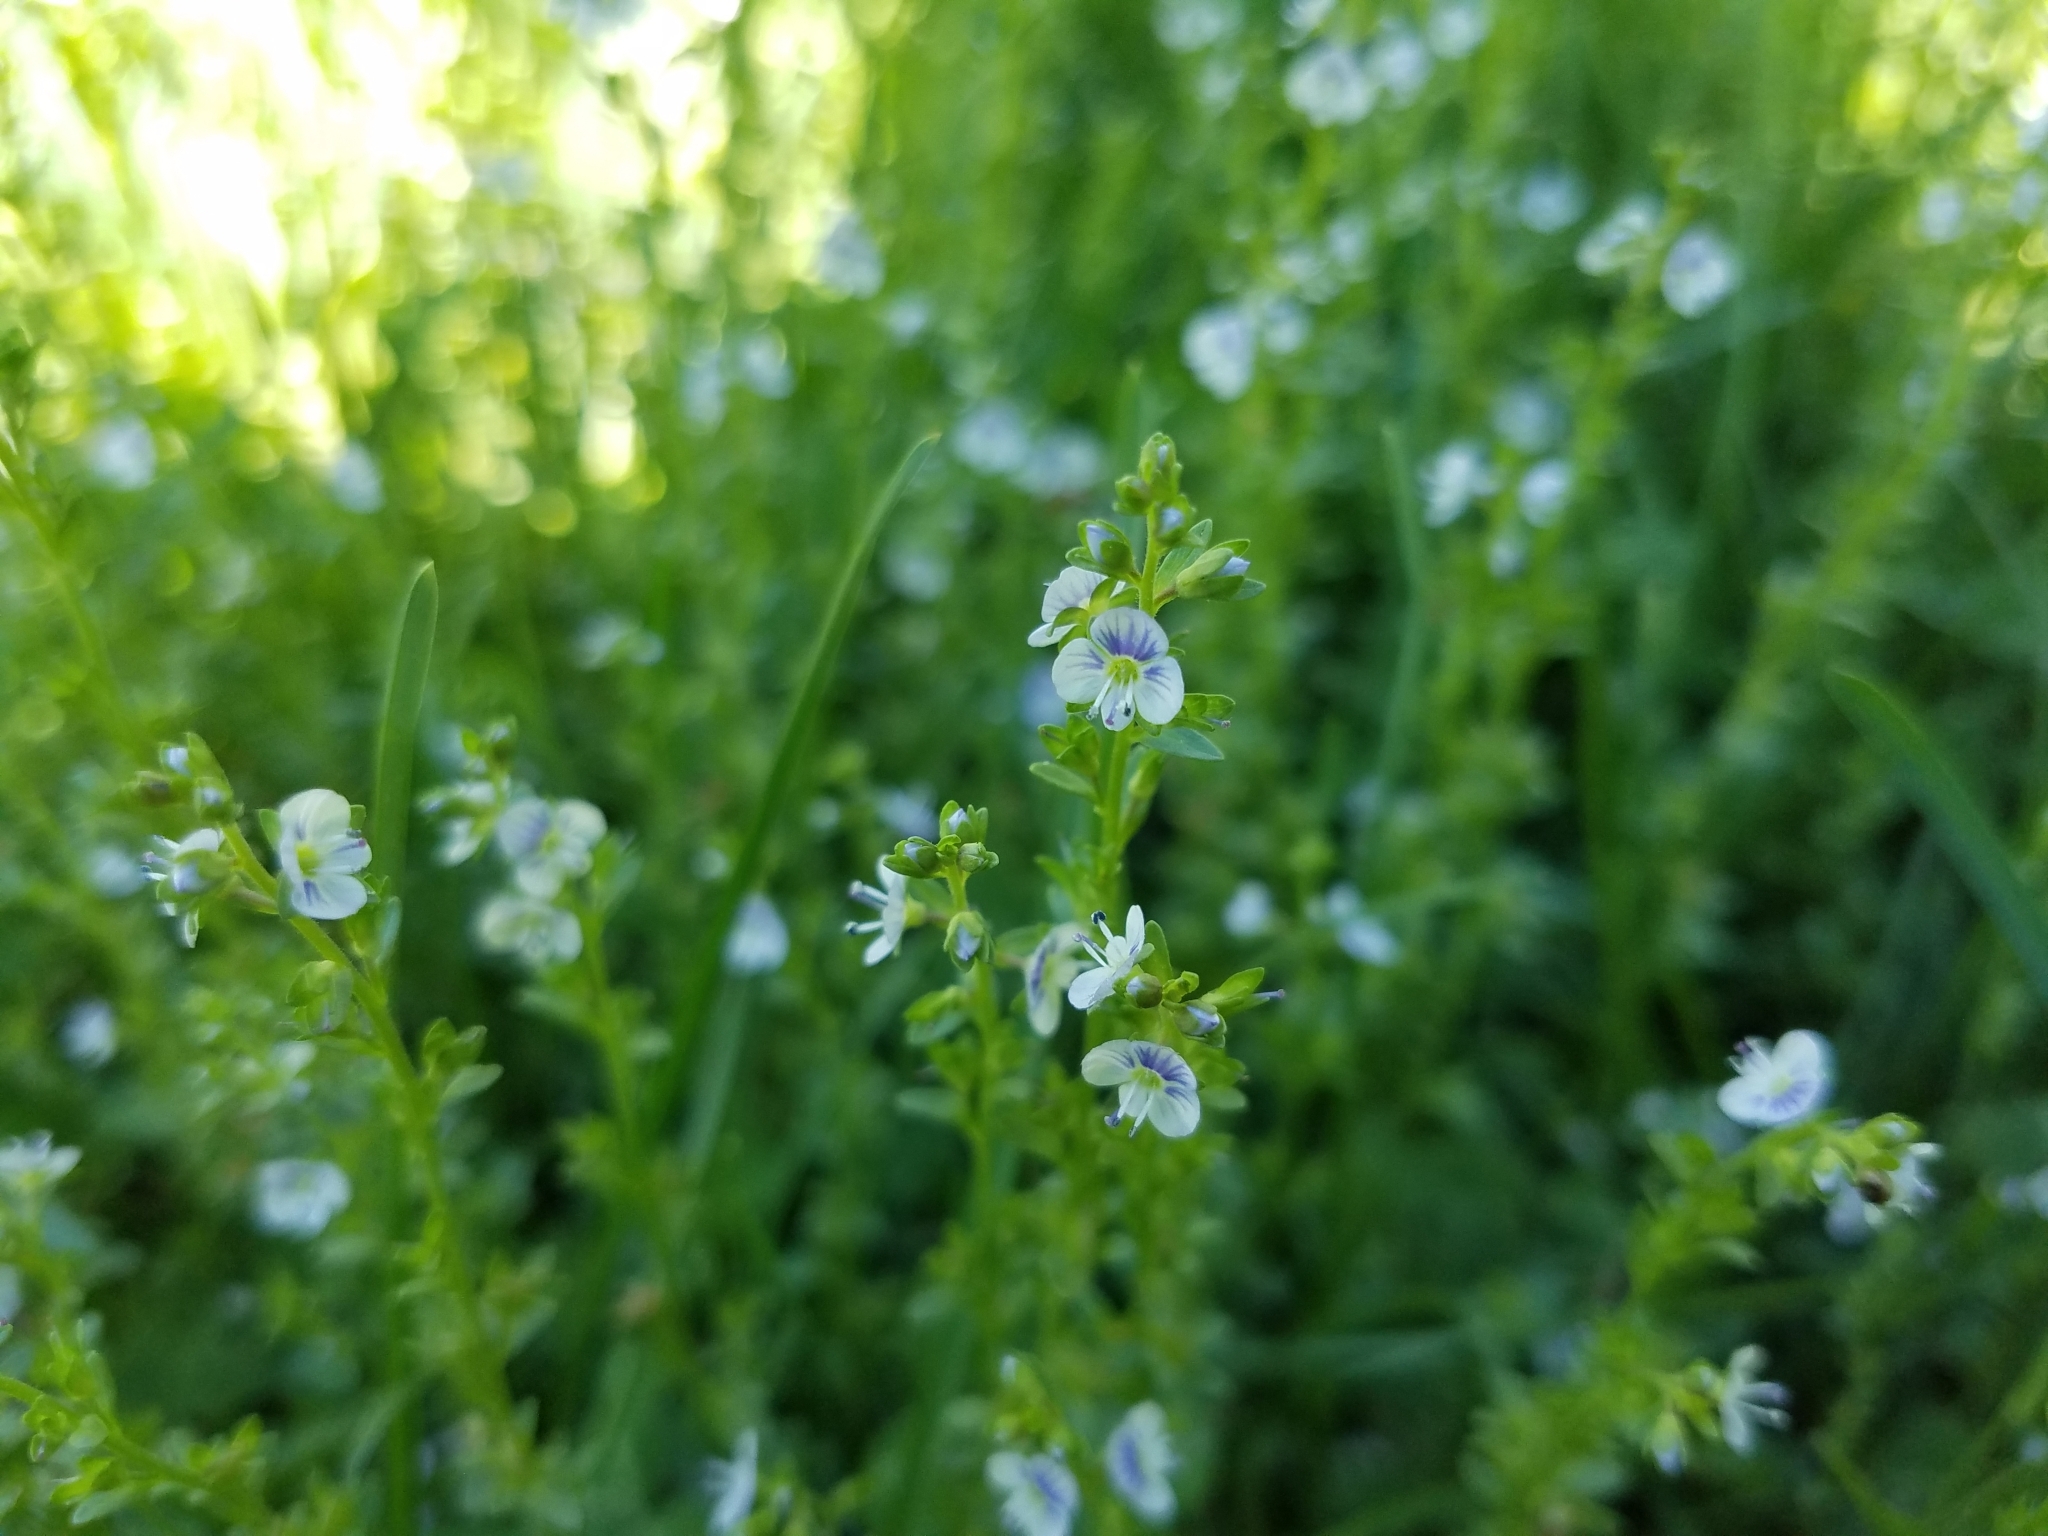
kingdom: Plantae
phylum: Tracheophyta
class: Magnoliopsida
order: Lamiales
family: Plantaginaceae
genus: Veronica
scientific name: Veronica serpyllifolia
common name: Thyme-leaved speedwell
